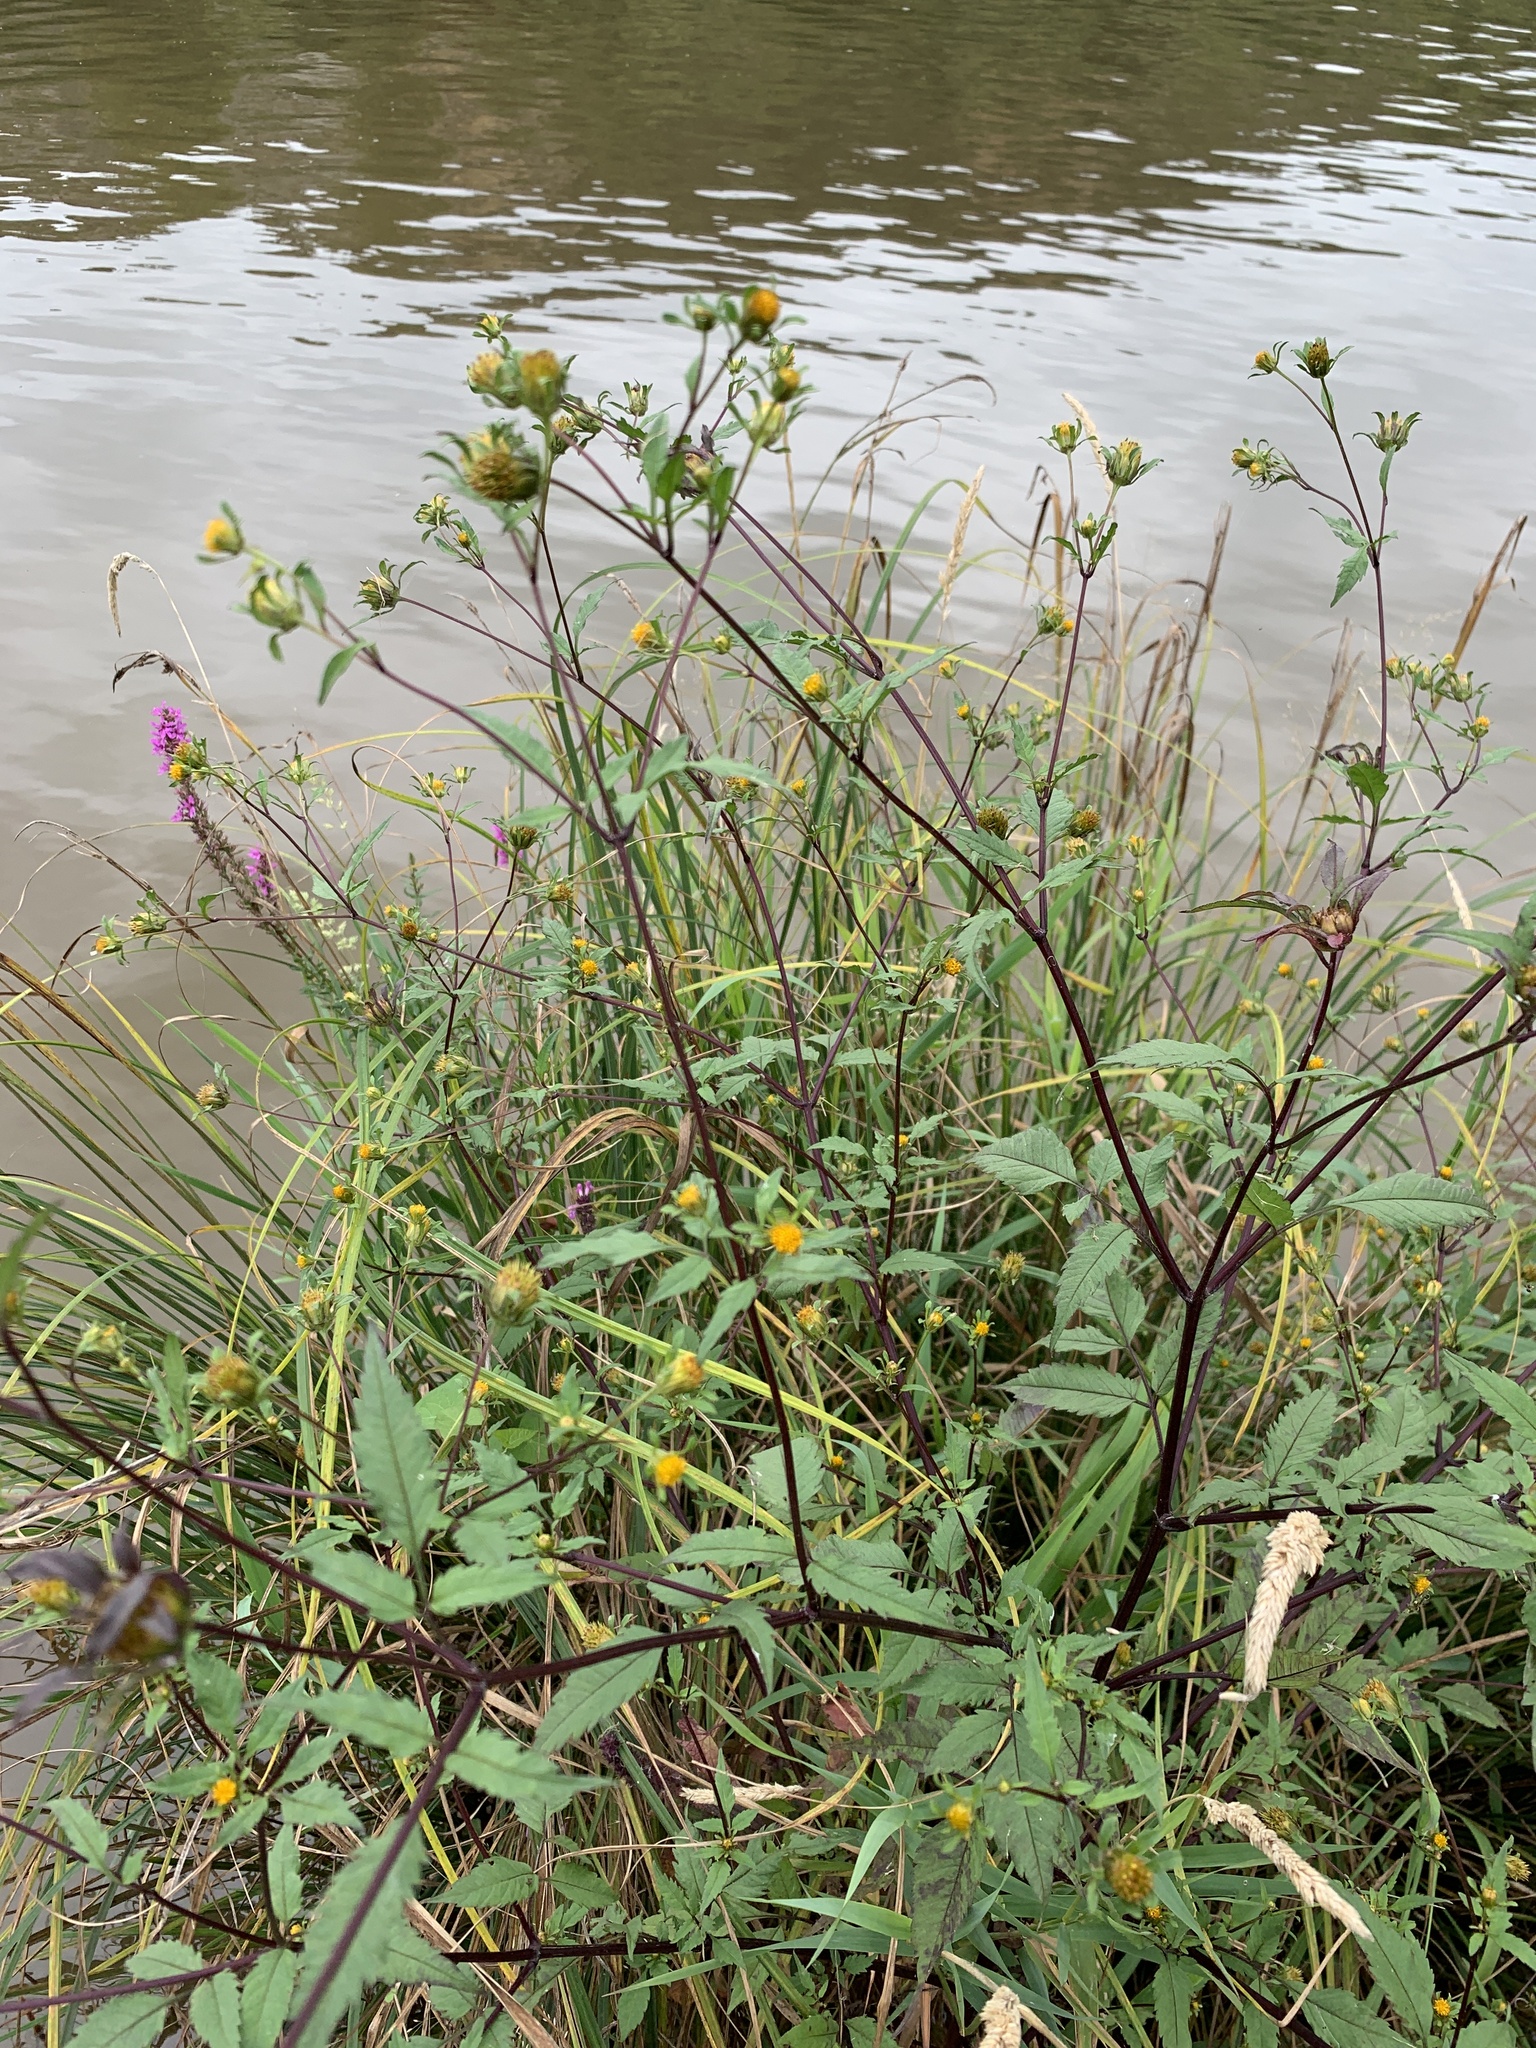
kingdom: Plantae
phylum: Tracheophyta
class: Magnoliopsida
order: Asterales
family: Asteraceae
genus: Bidens
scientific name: Bidens frondosa
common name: Beggarticks
